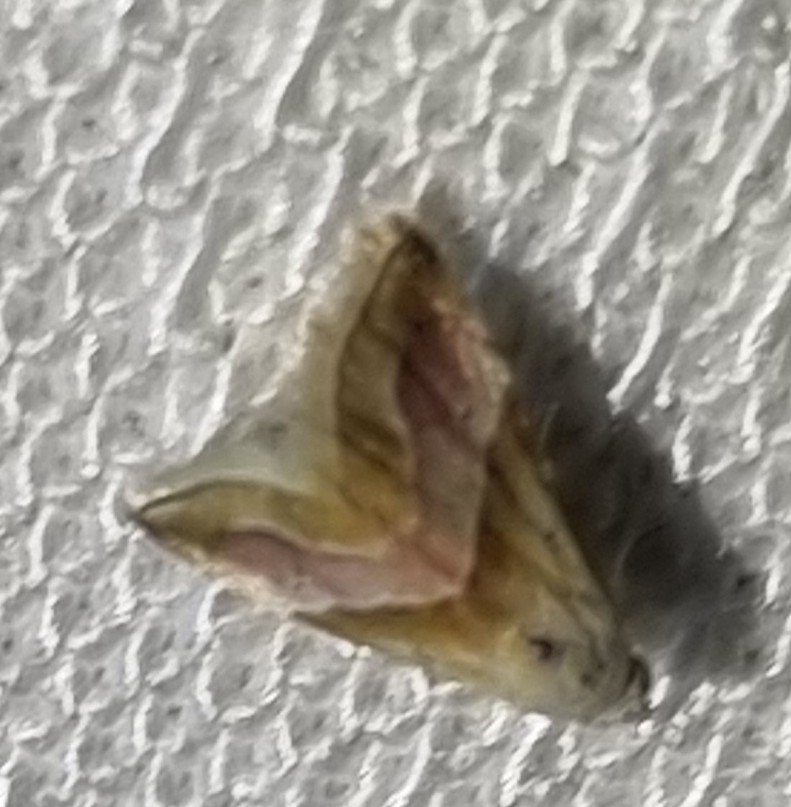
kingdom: Animalia
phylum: Arthropoda
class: Insecta
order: Lepidoptera
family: Noctuidae
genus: Eublemma
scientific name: Eublemma roseana
